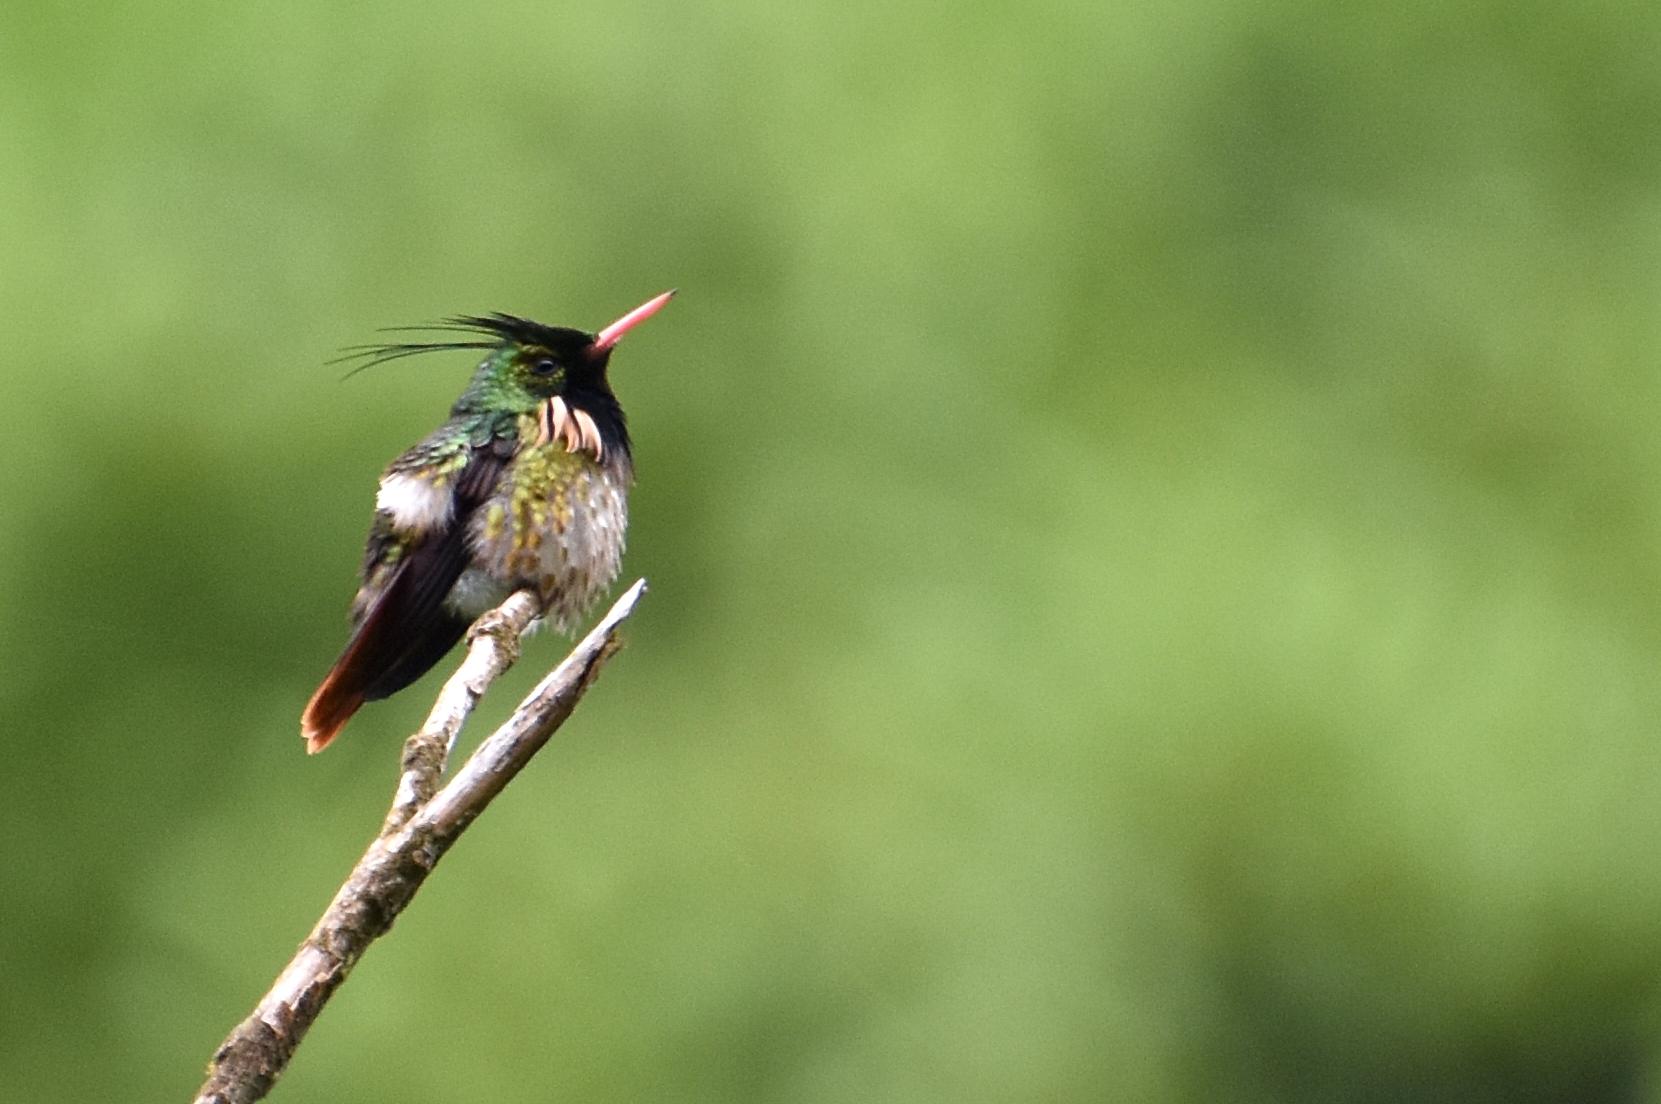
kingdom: Animalia
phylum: Chordata
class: Aves
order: Apodiformes
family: Trochilidae
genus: Lophornis
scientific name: Lophornis helenae
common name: Black-crested coquette
